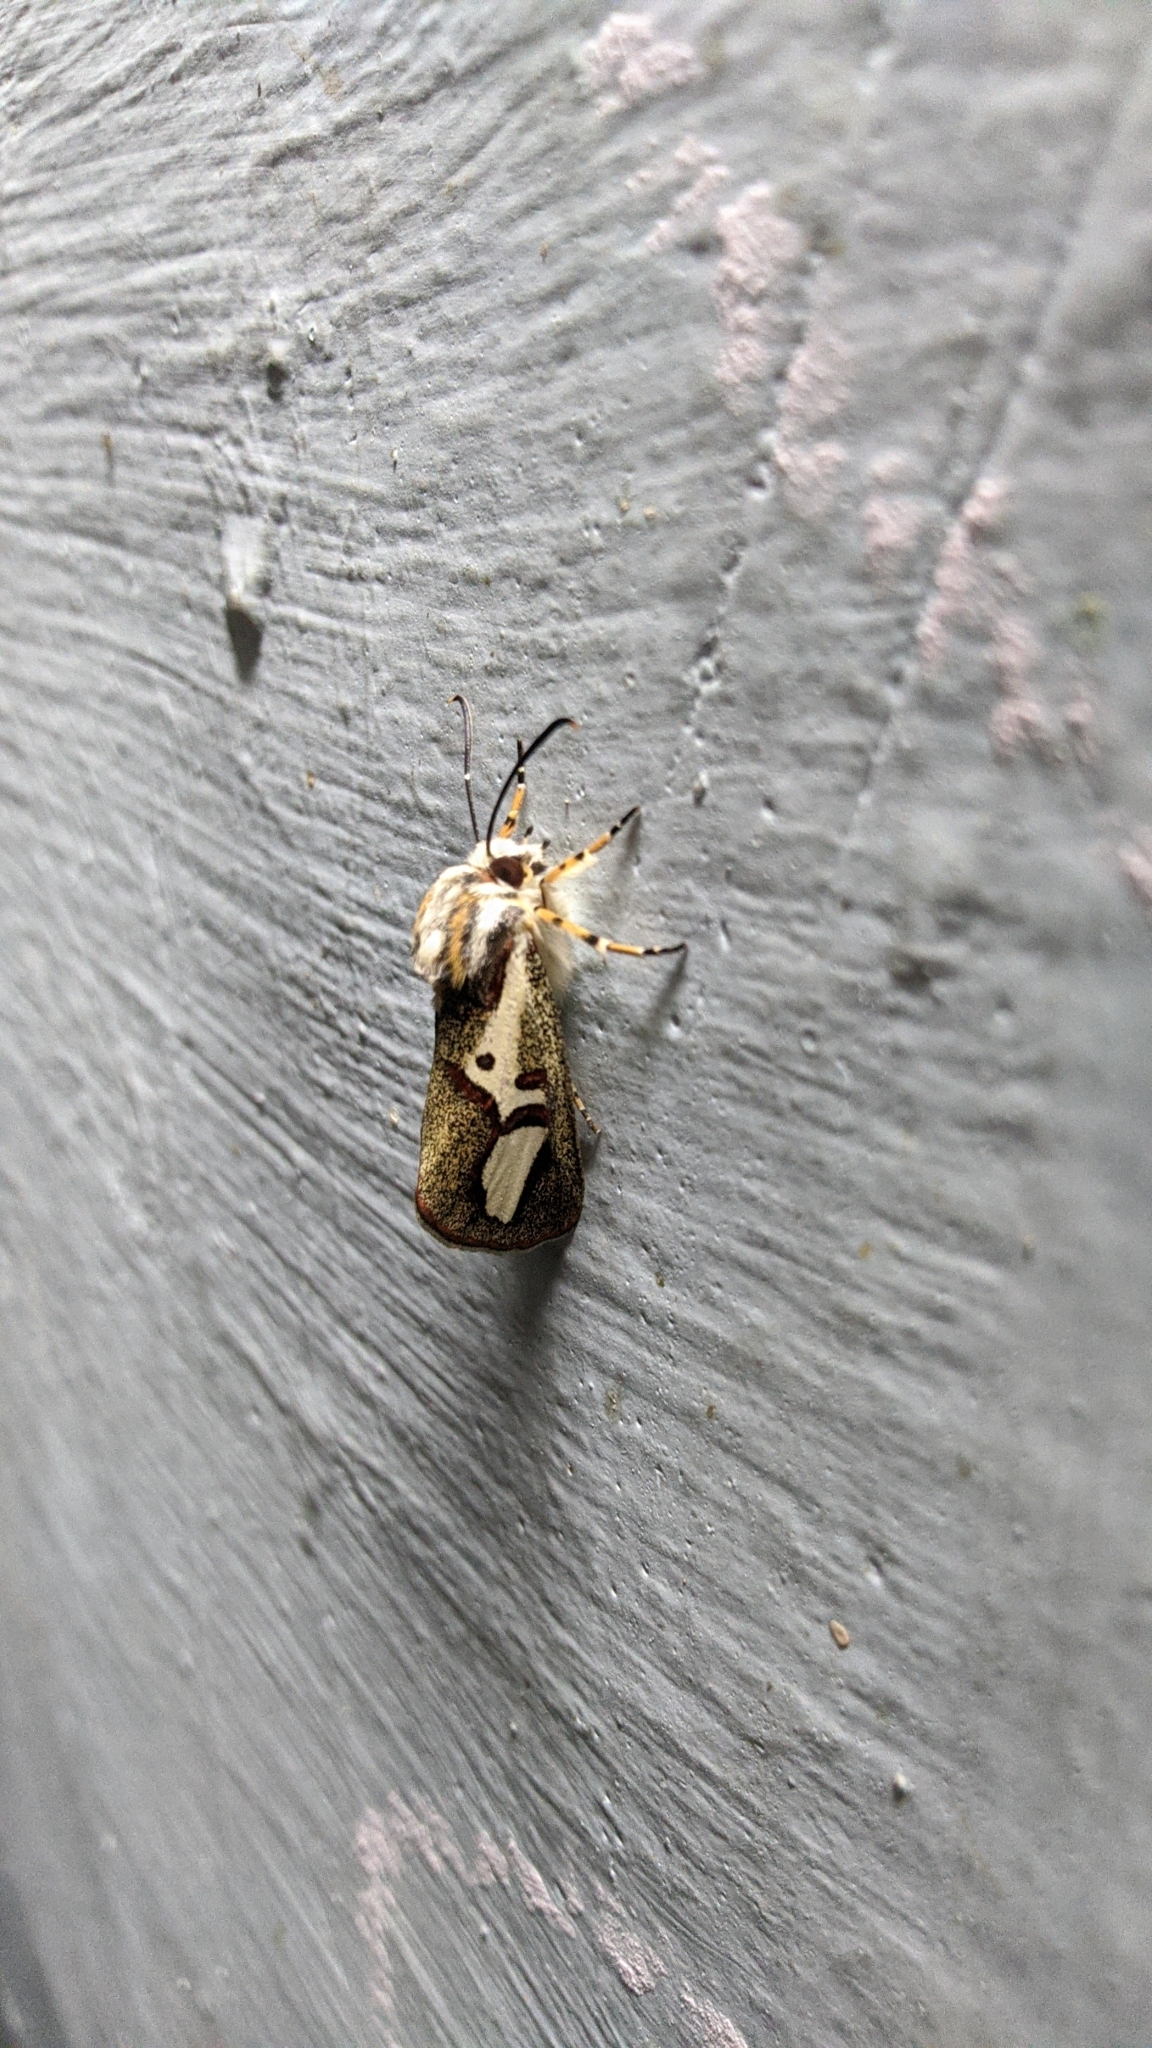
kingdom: Animalia
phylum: Arthropoda
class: Insecta
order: Lepidoptera
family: Noctuidae
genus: Aegocera
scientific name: Aegocera venulia
